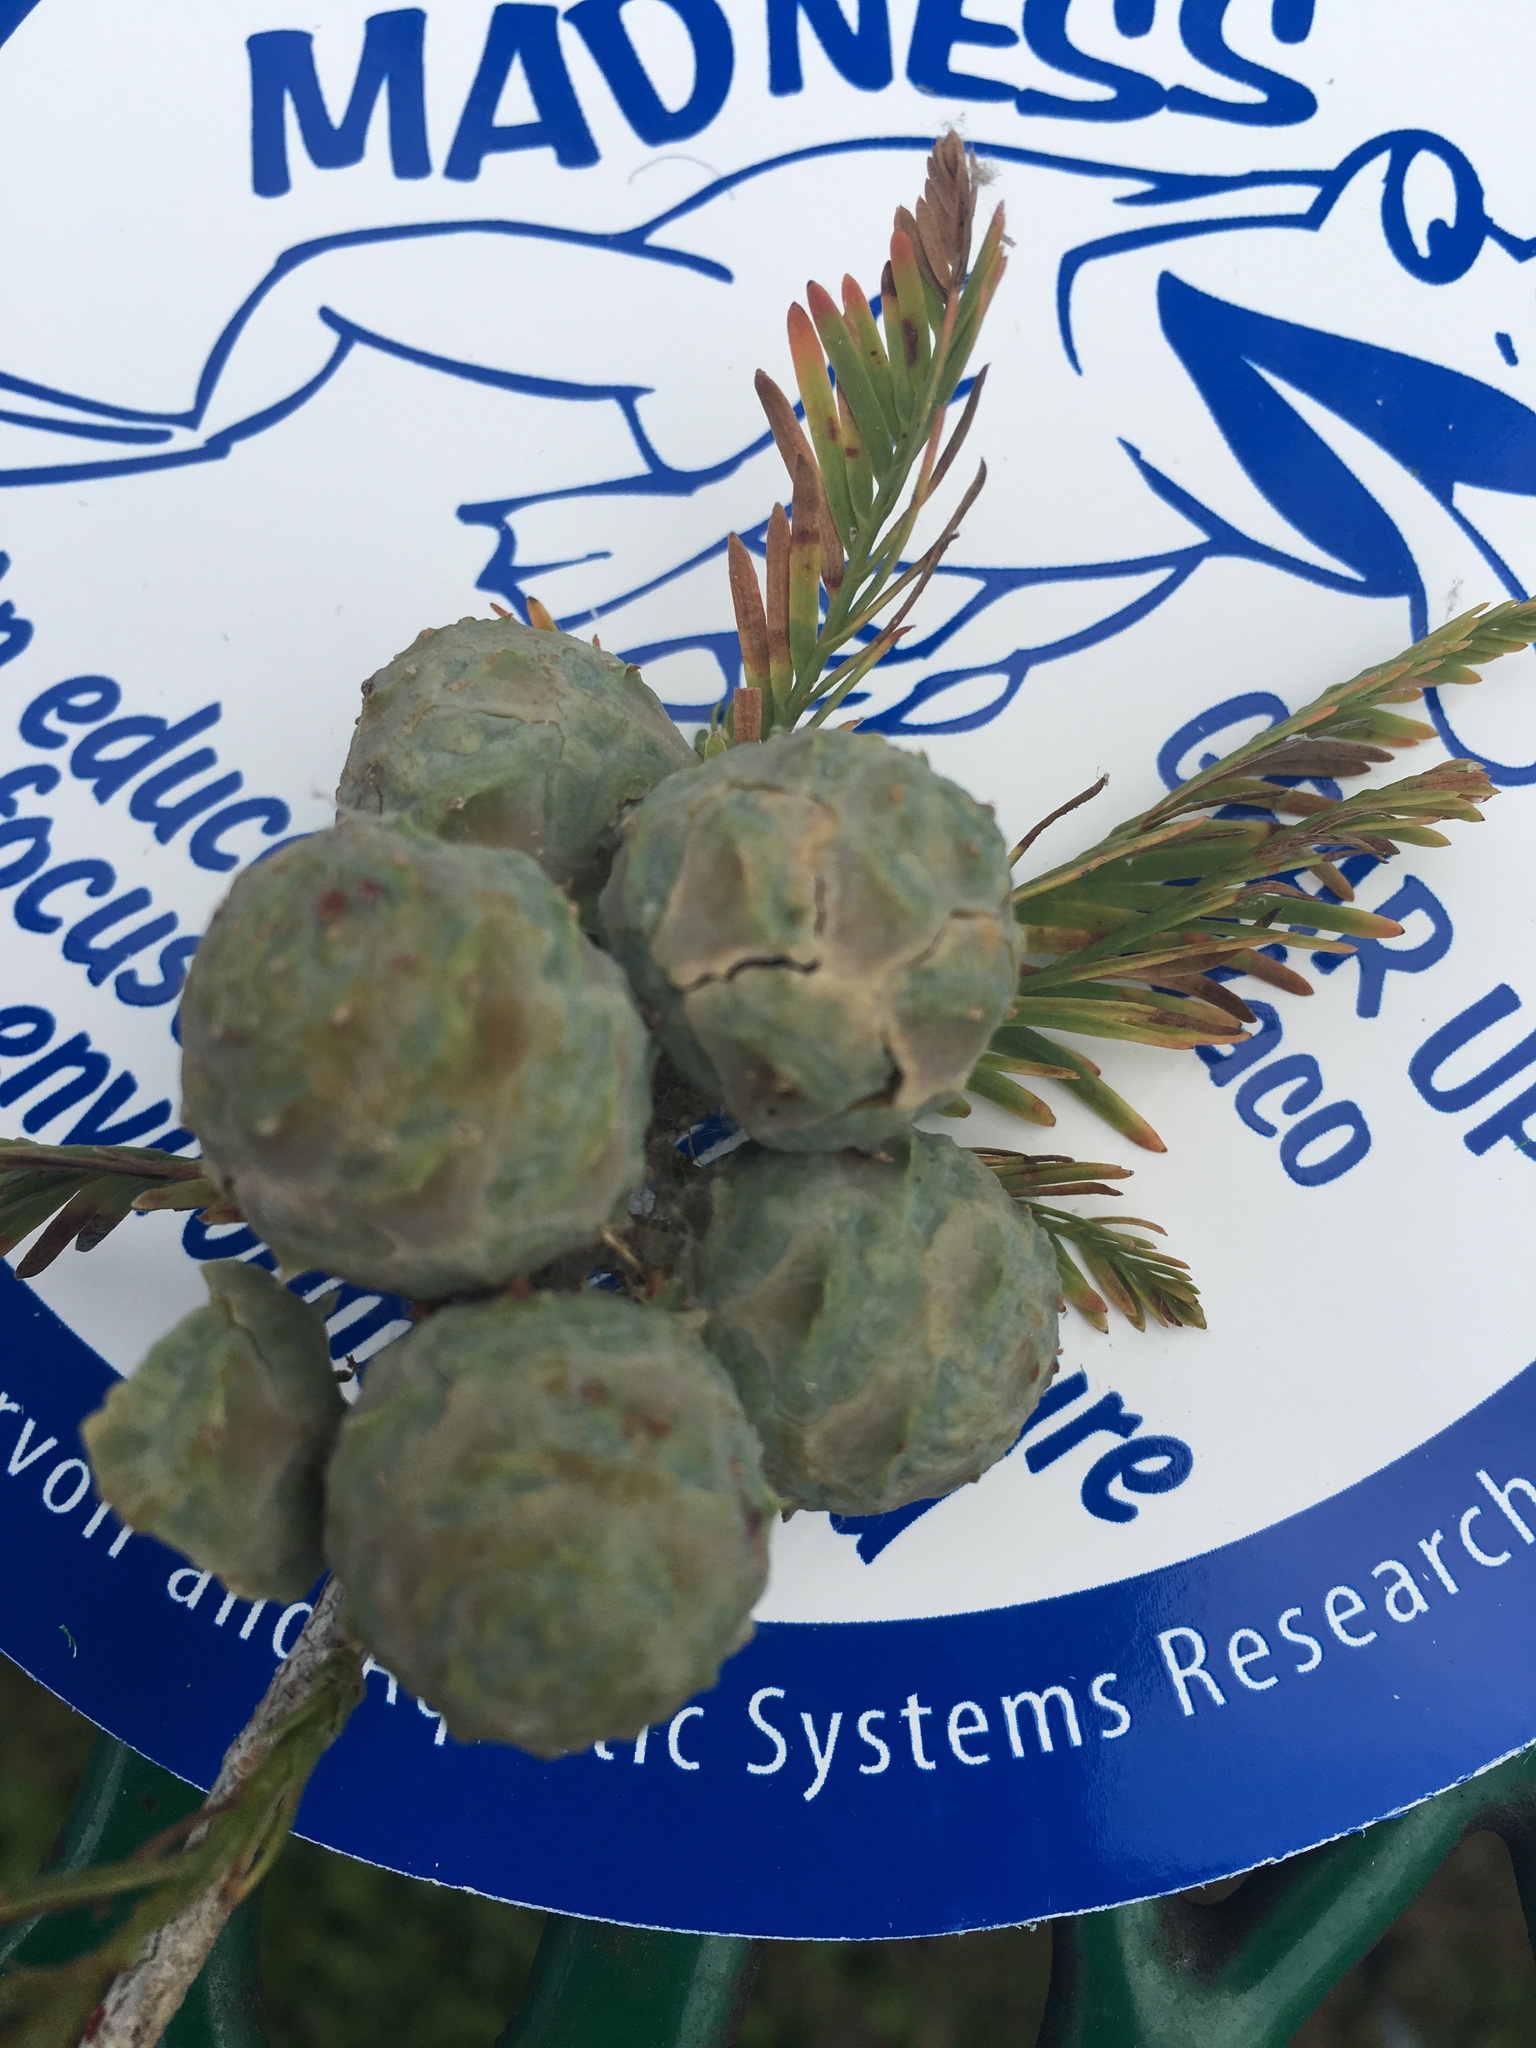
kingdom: Plantae
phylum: Tracheophyta
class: Pinopsida
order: Pinales
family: Cupressaceae
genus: Taxodium
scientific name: Taxodium distichum
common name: Bald cypress
